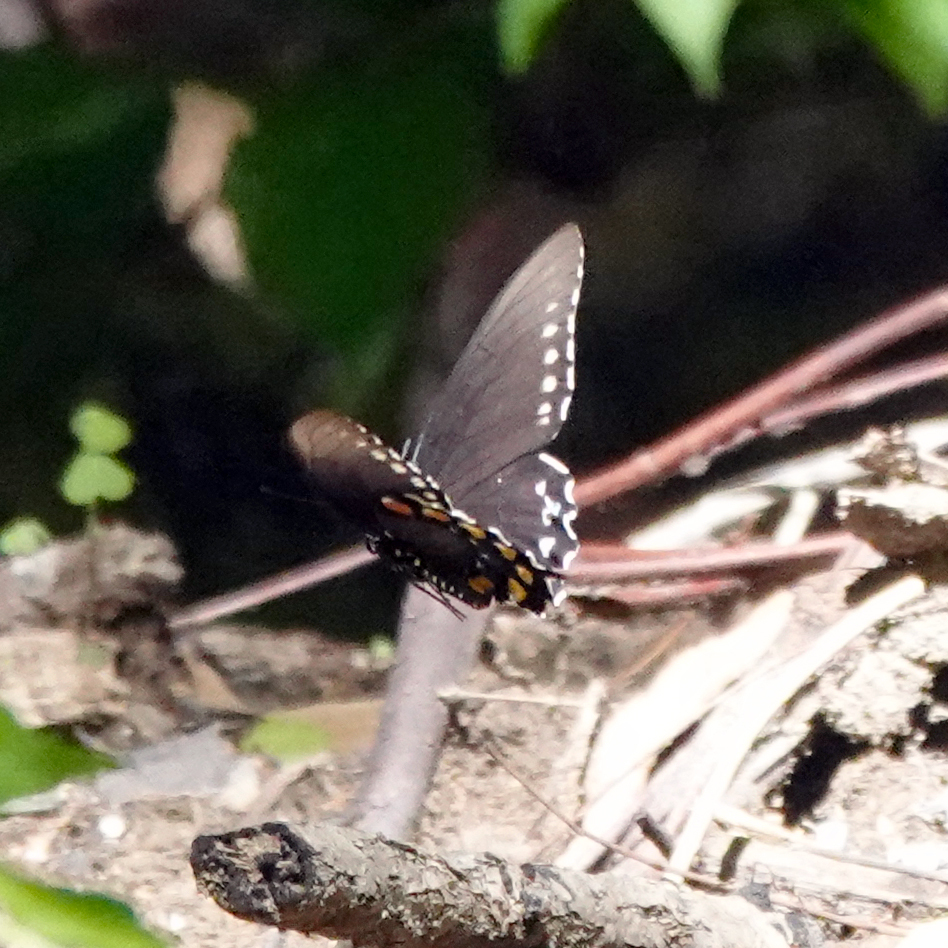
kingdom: Animalia
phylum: Arthropoda
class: Insecta
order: Lepidoptera
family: Papilionidae
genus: Battus
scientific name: Battus philenor
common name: Pipevine swallowtail
